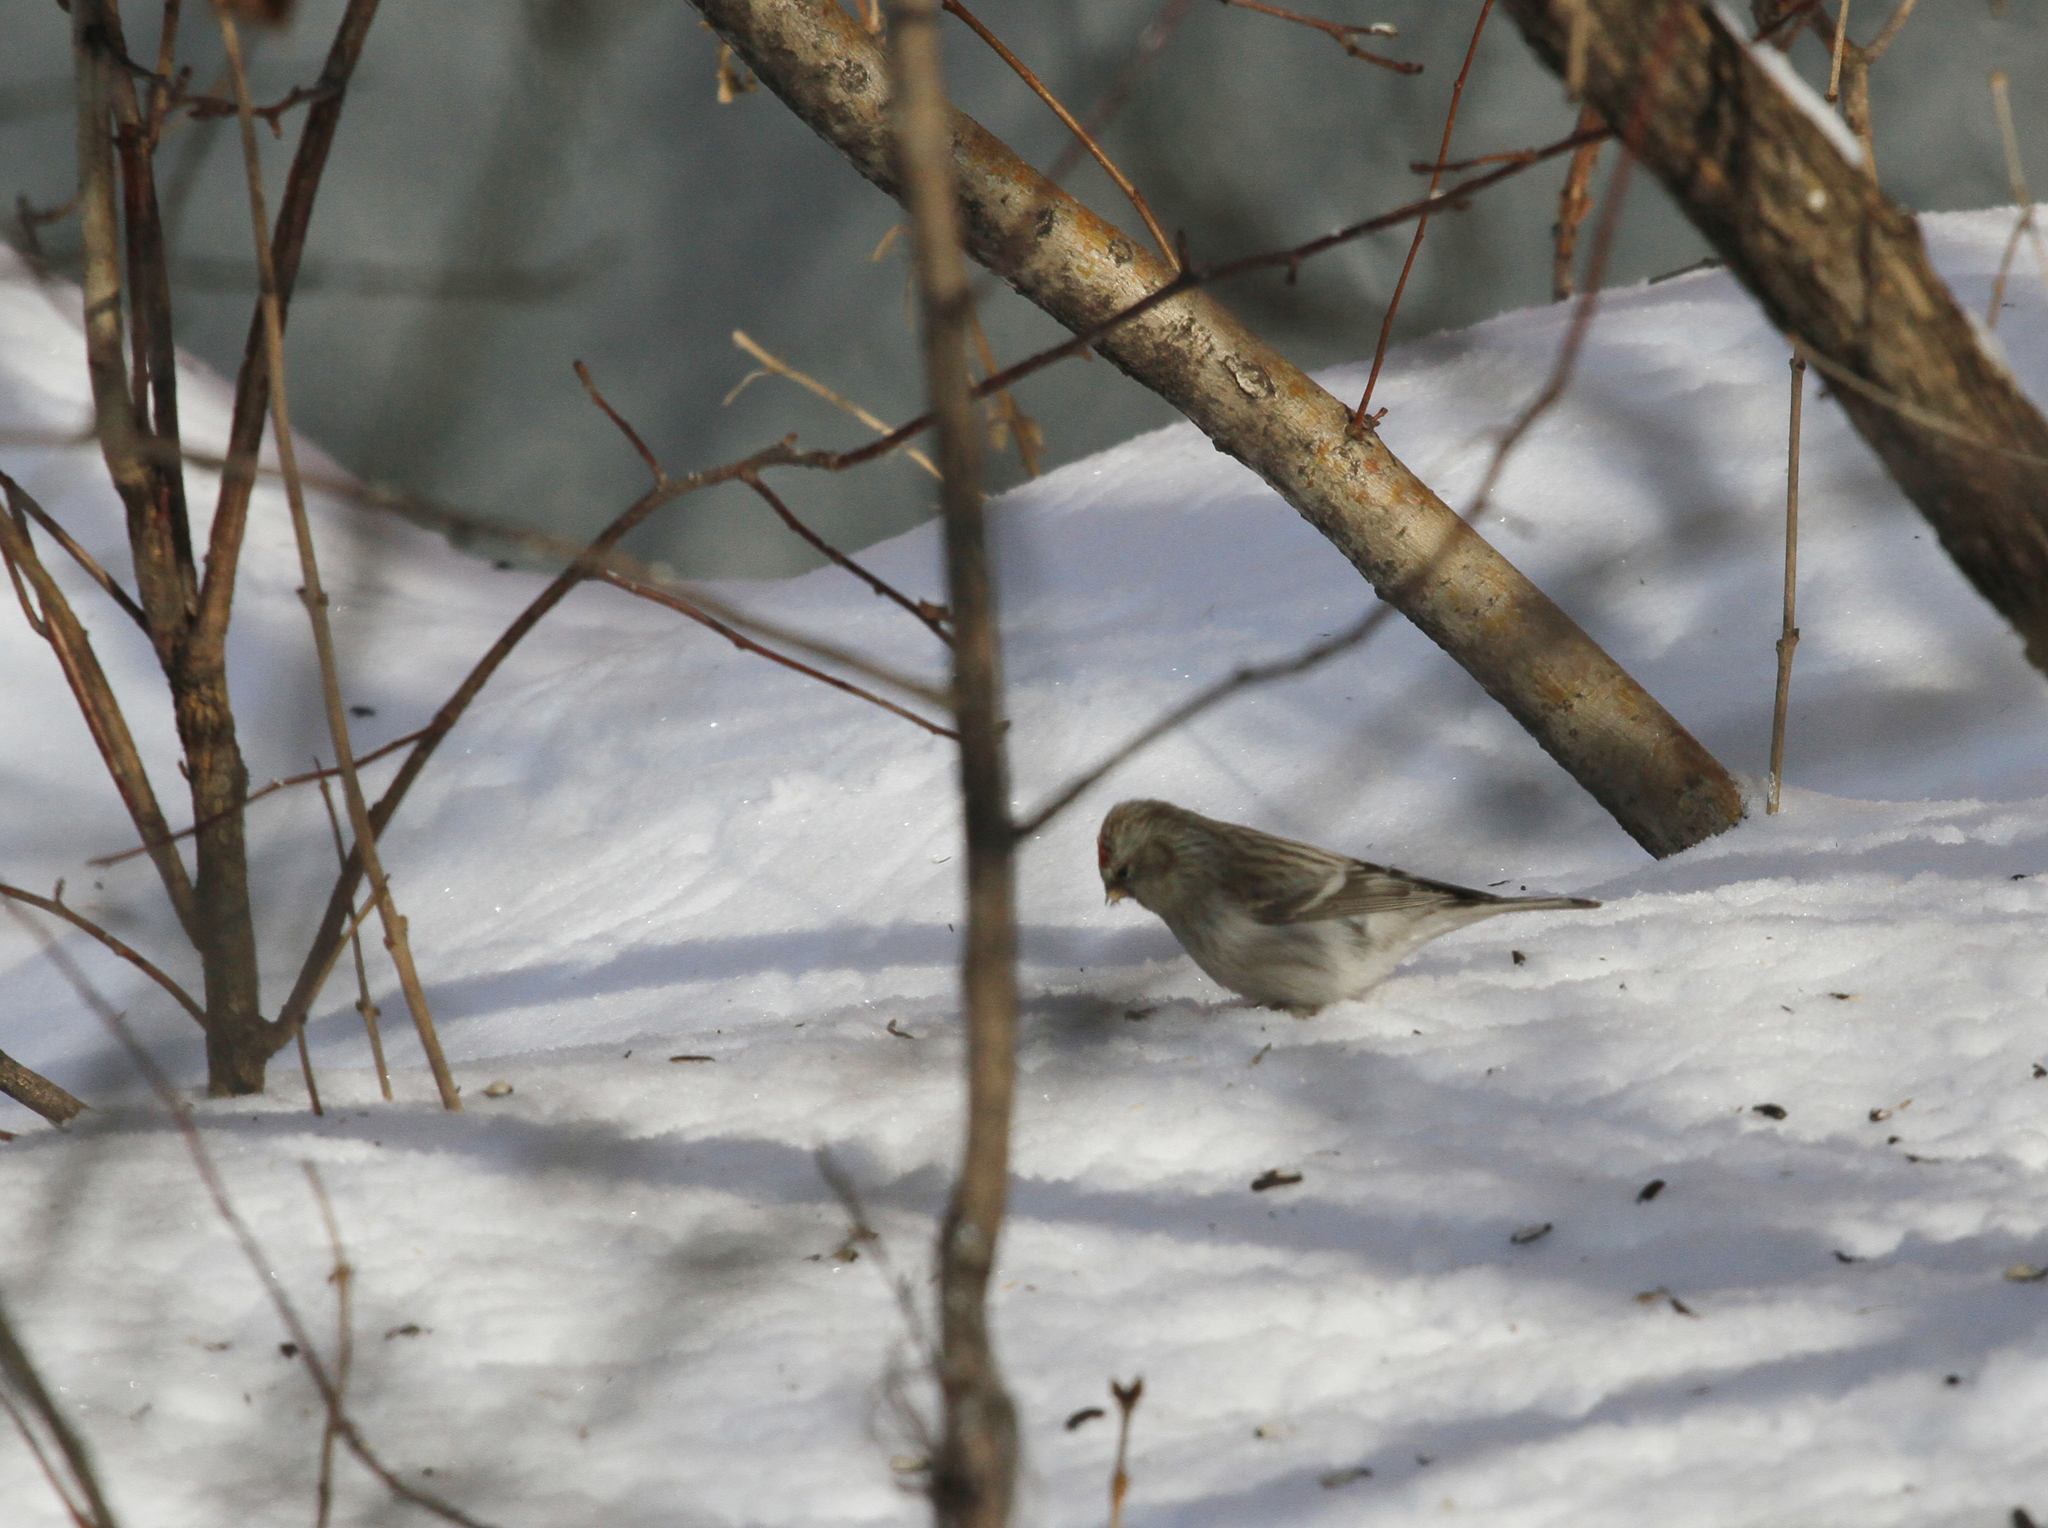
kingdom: Animalia
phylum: Chordata
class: Aves
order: Passeriformes
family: Fringillidae
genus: Acanthis
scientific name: Acanthis flammea
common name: Common redpoll
